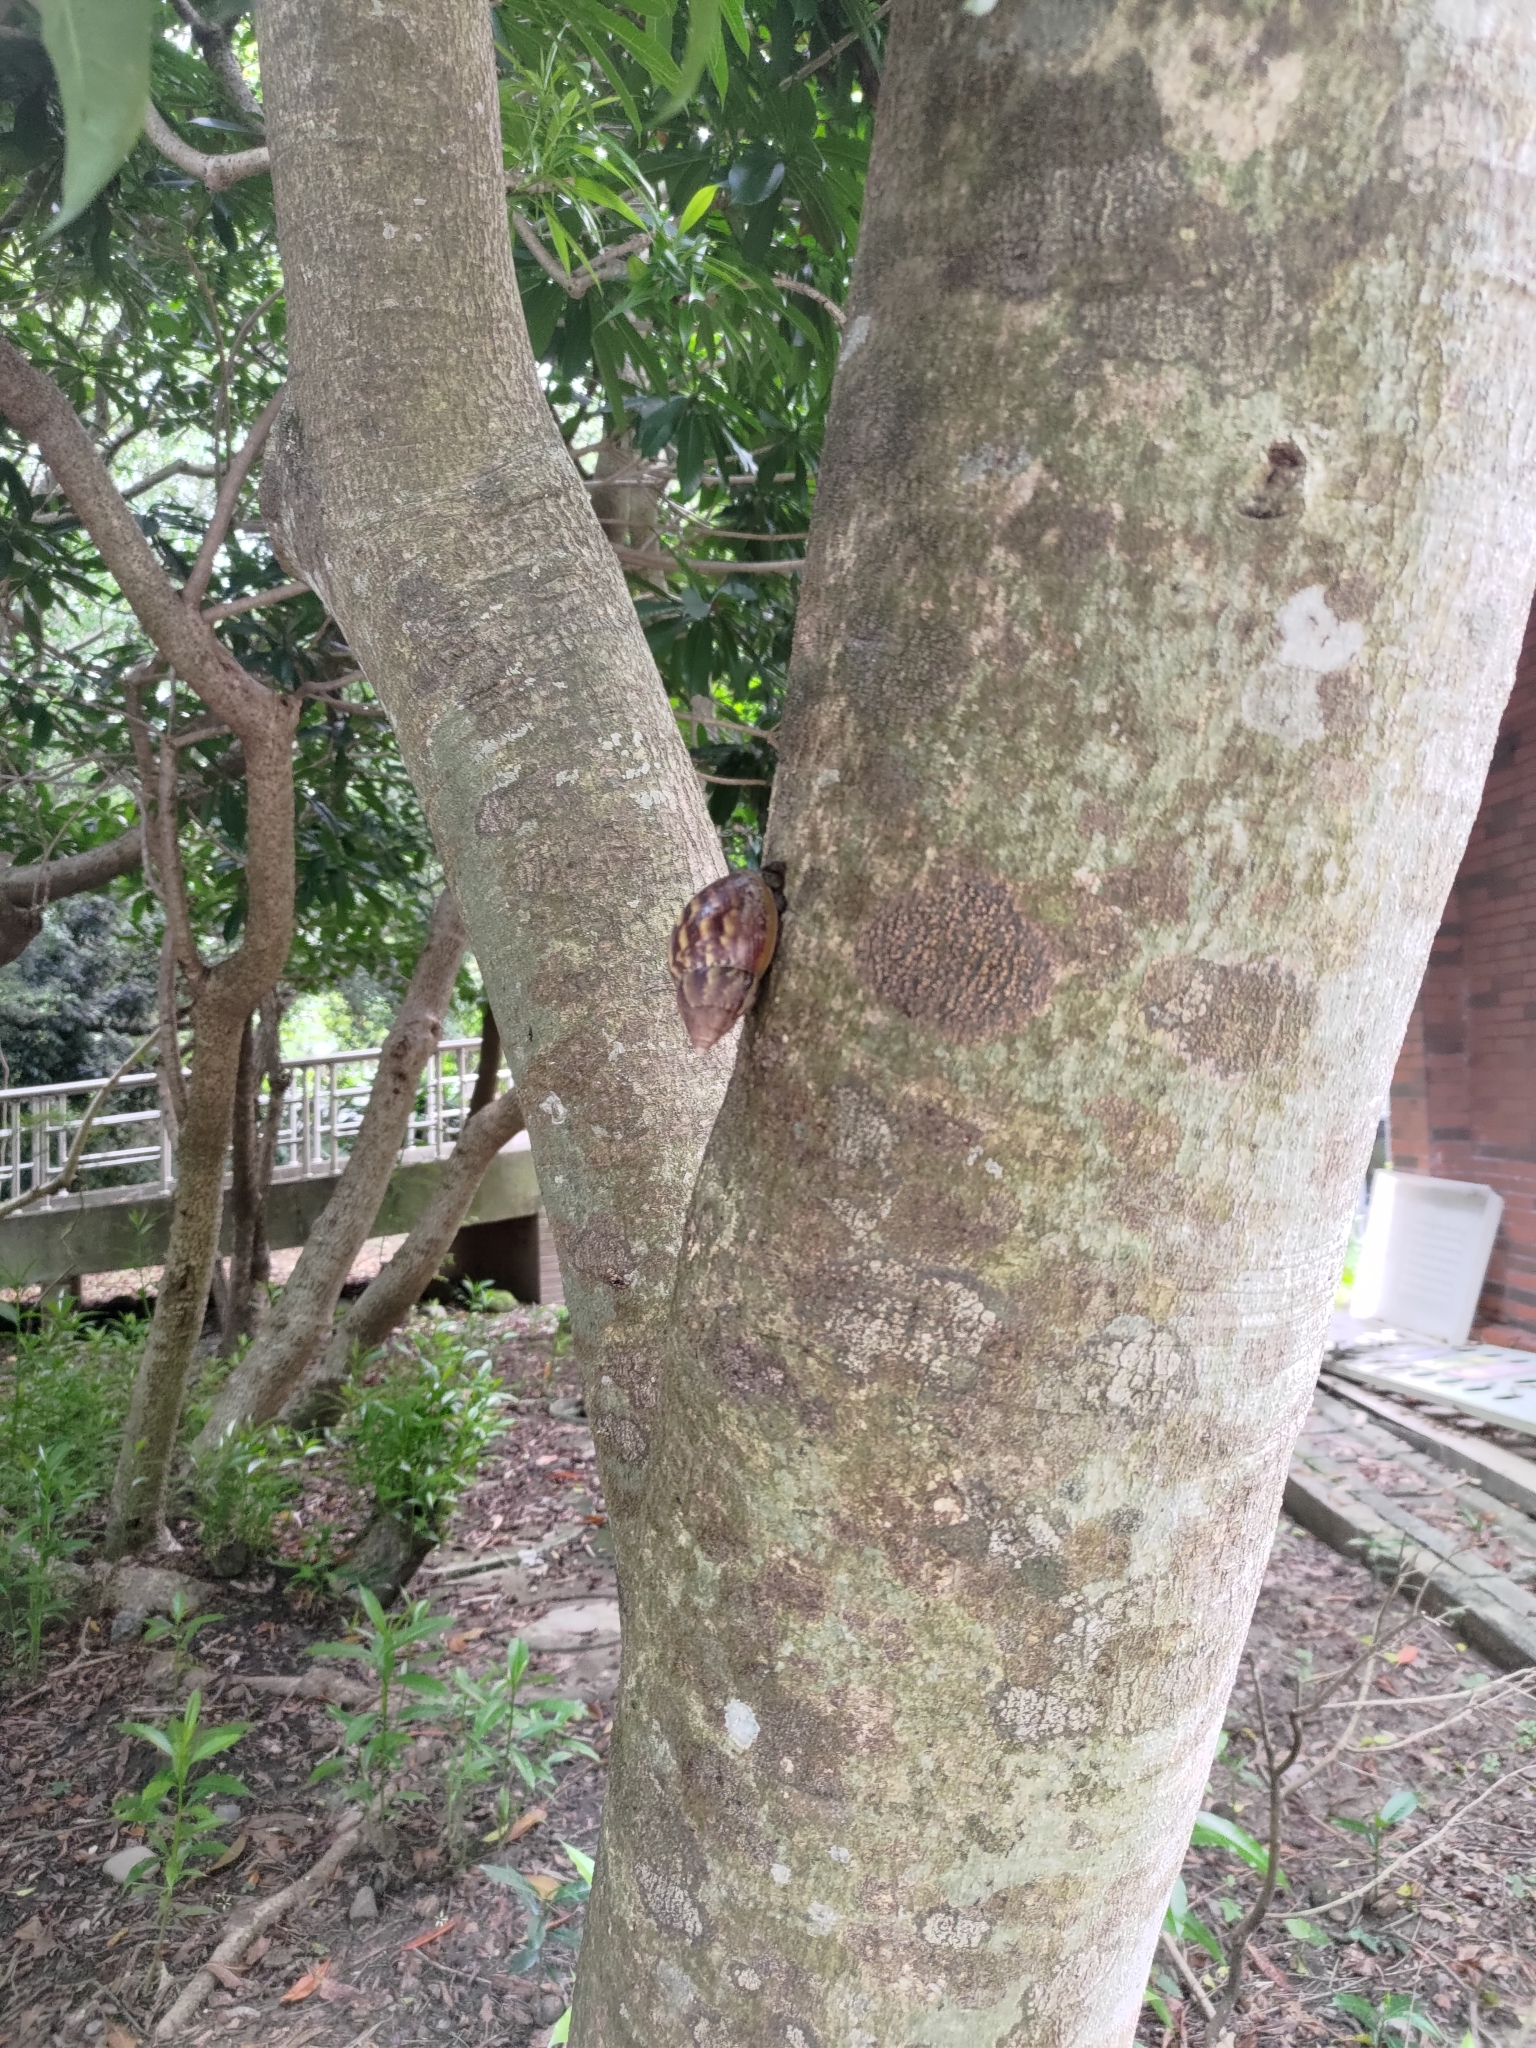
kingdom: Animalia
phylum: Mollusca
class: Gastropoda
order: Stylommatophora
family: Achatinidae
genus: Lissachatina
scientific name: Lissachatina fulica
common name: Giant african snail
